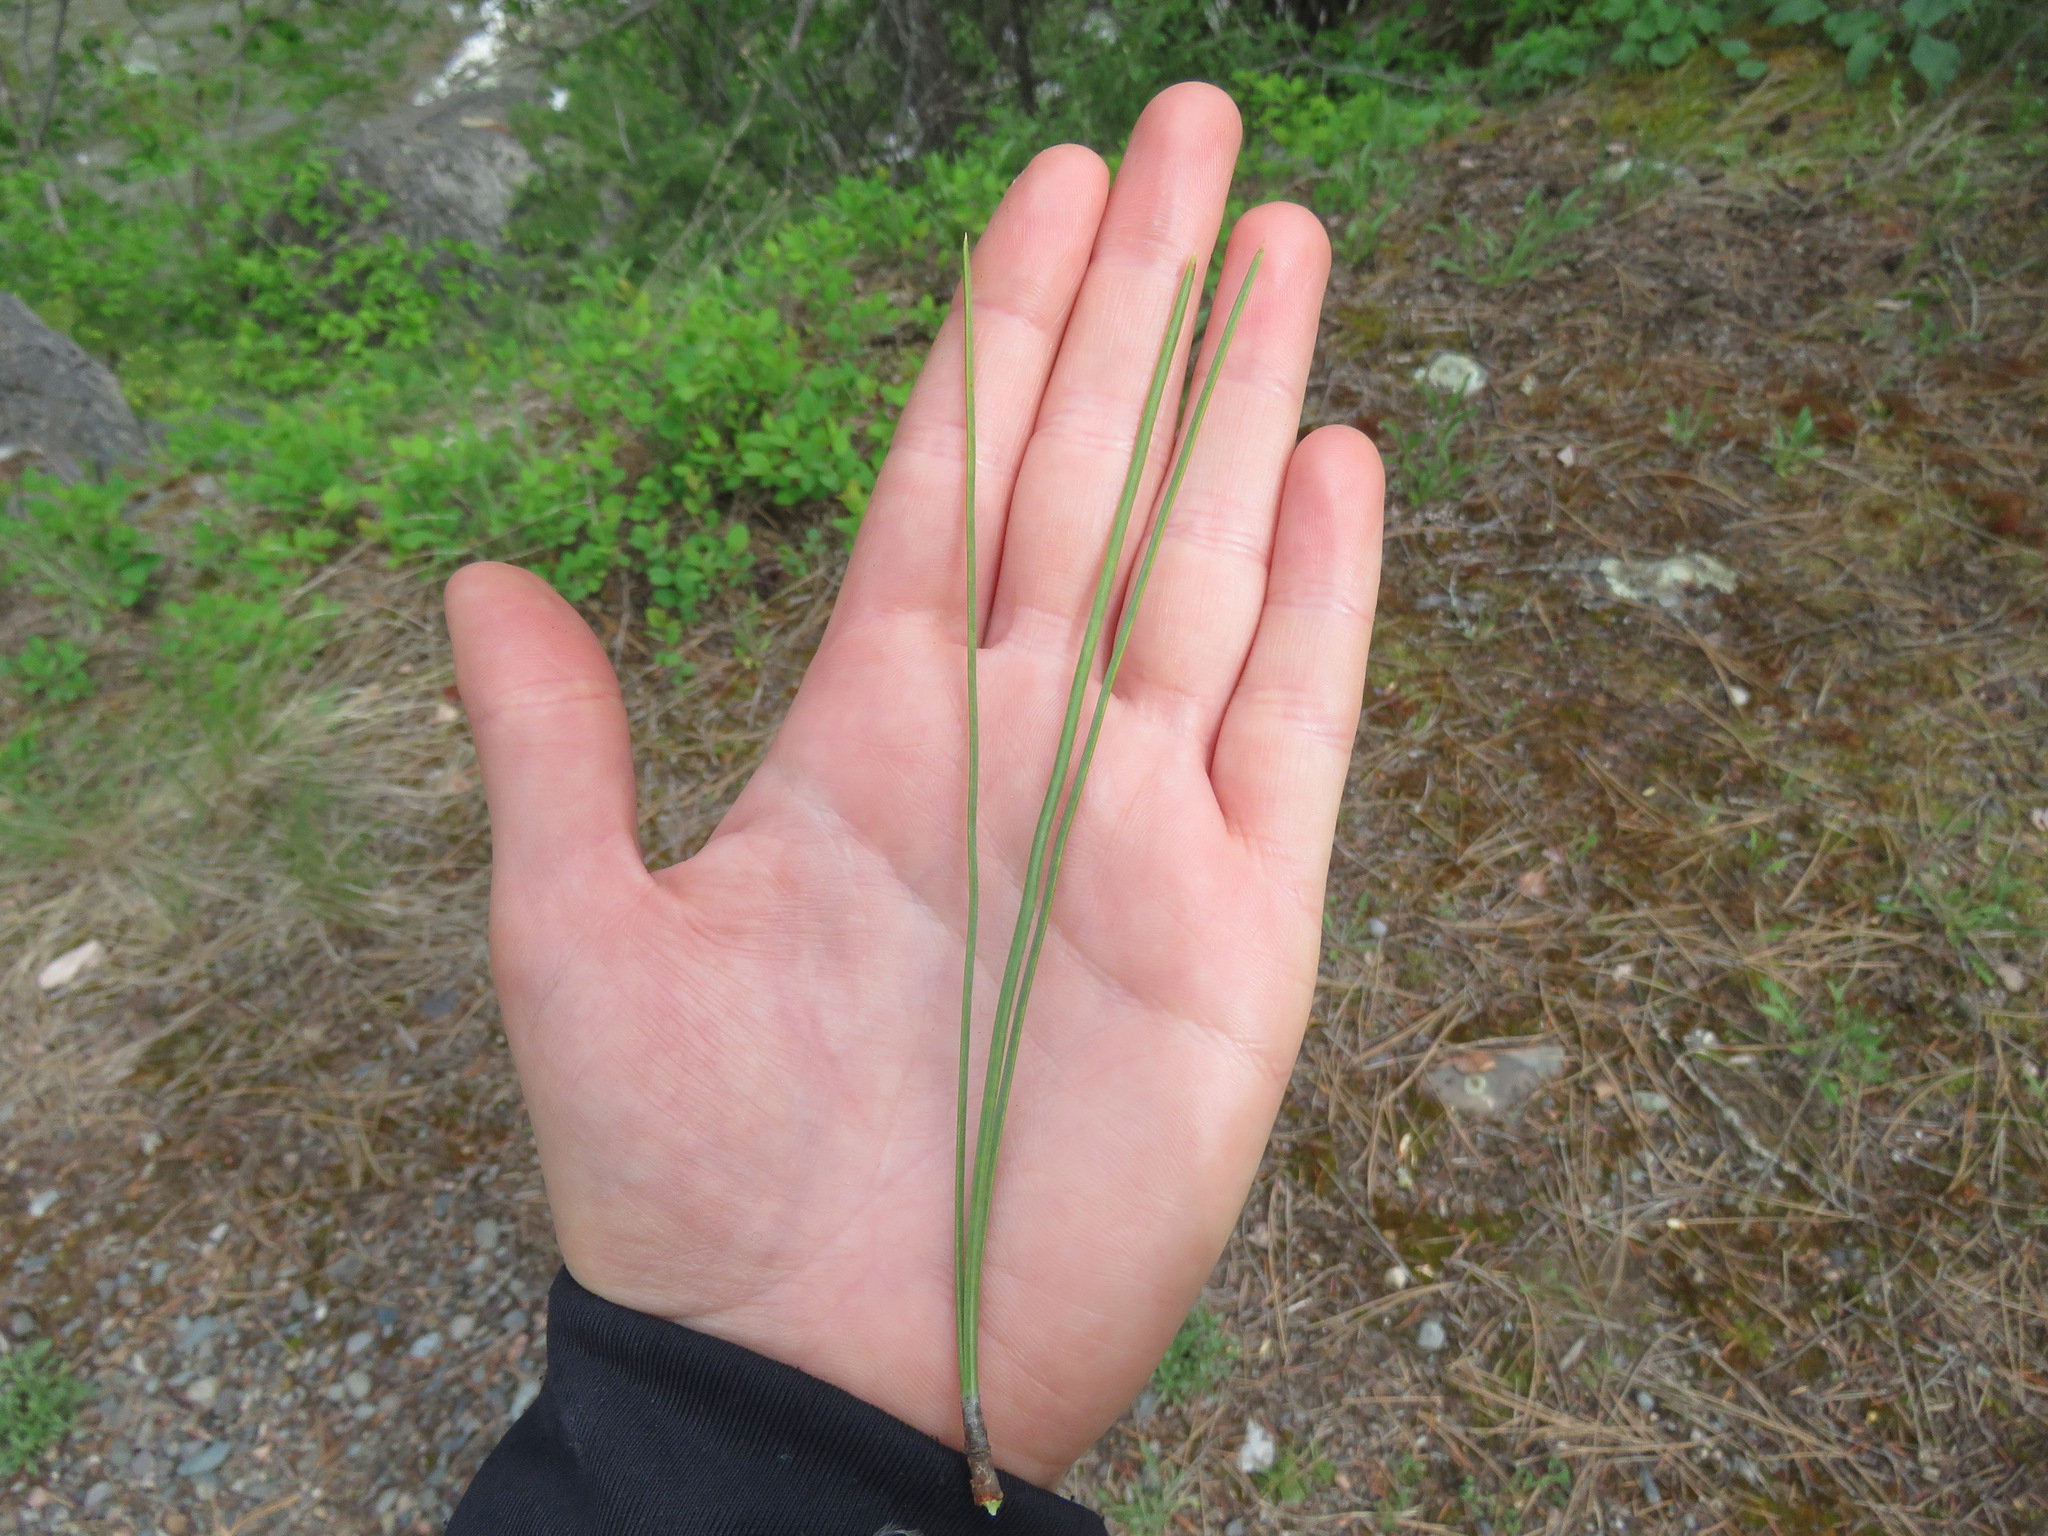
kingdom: Plantae
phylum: Tracheophyta
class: Pinopsida
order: Pinales
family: Pinaceae
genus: Pinus
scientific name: Pinus ponderosa
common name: Western yellow-pine
